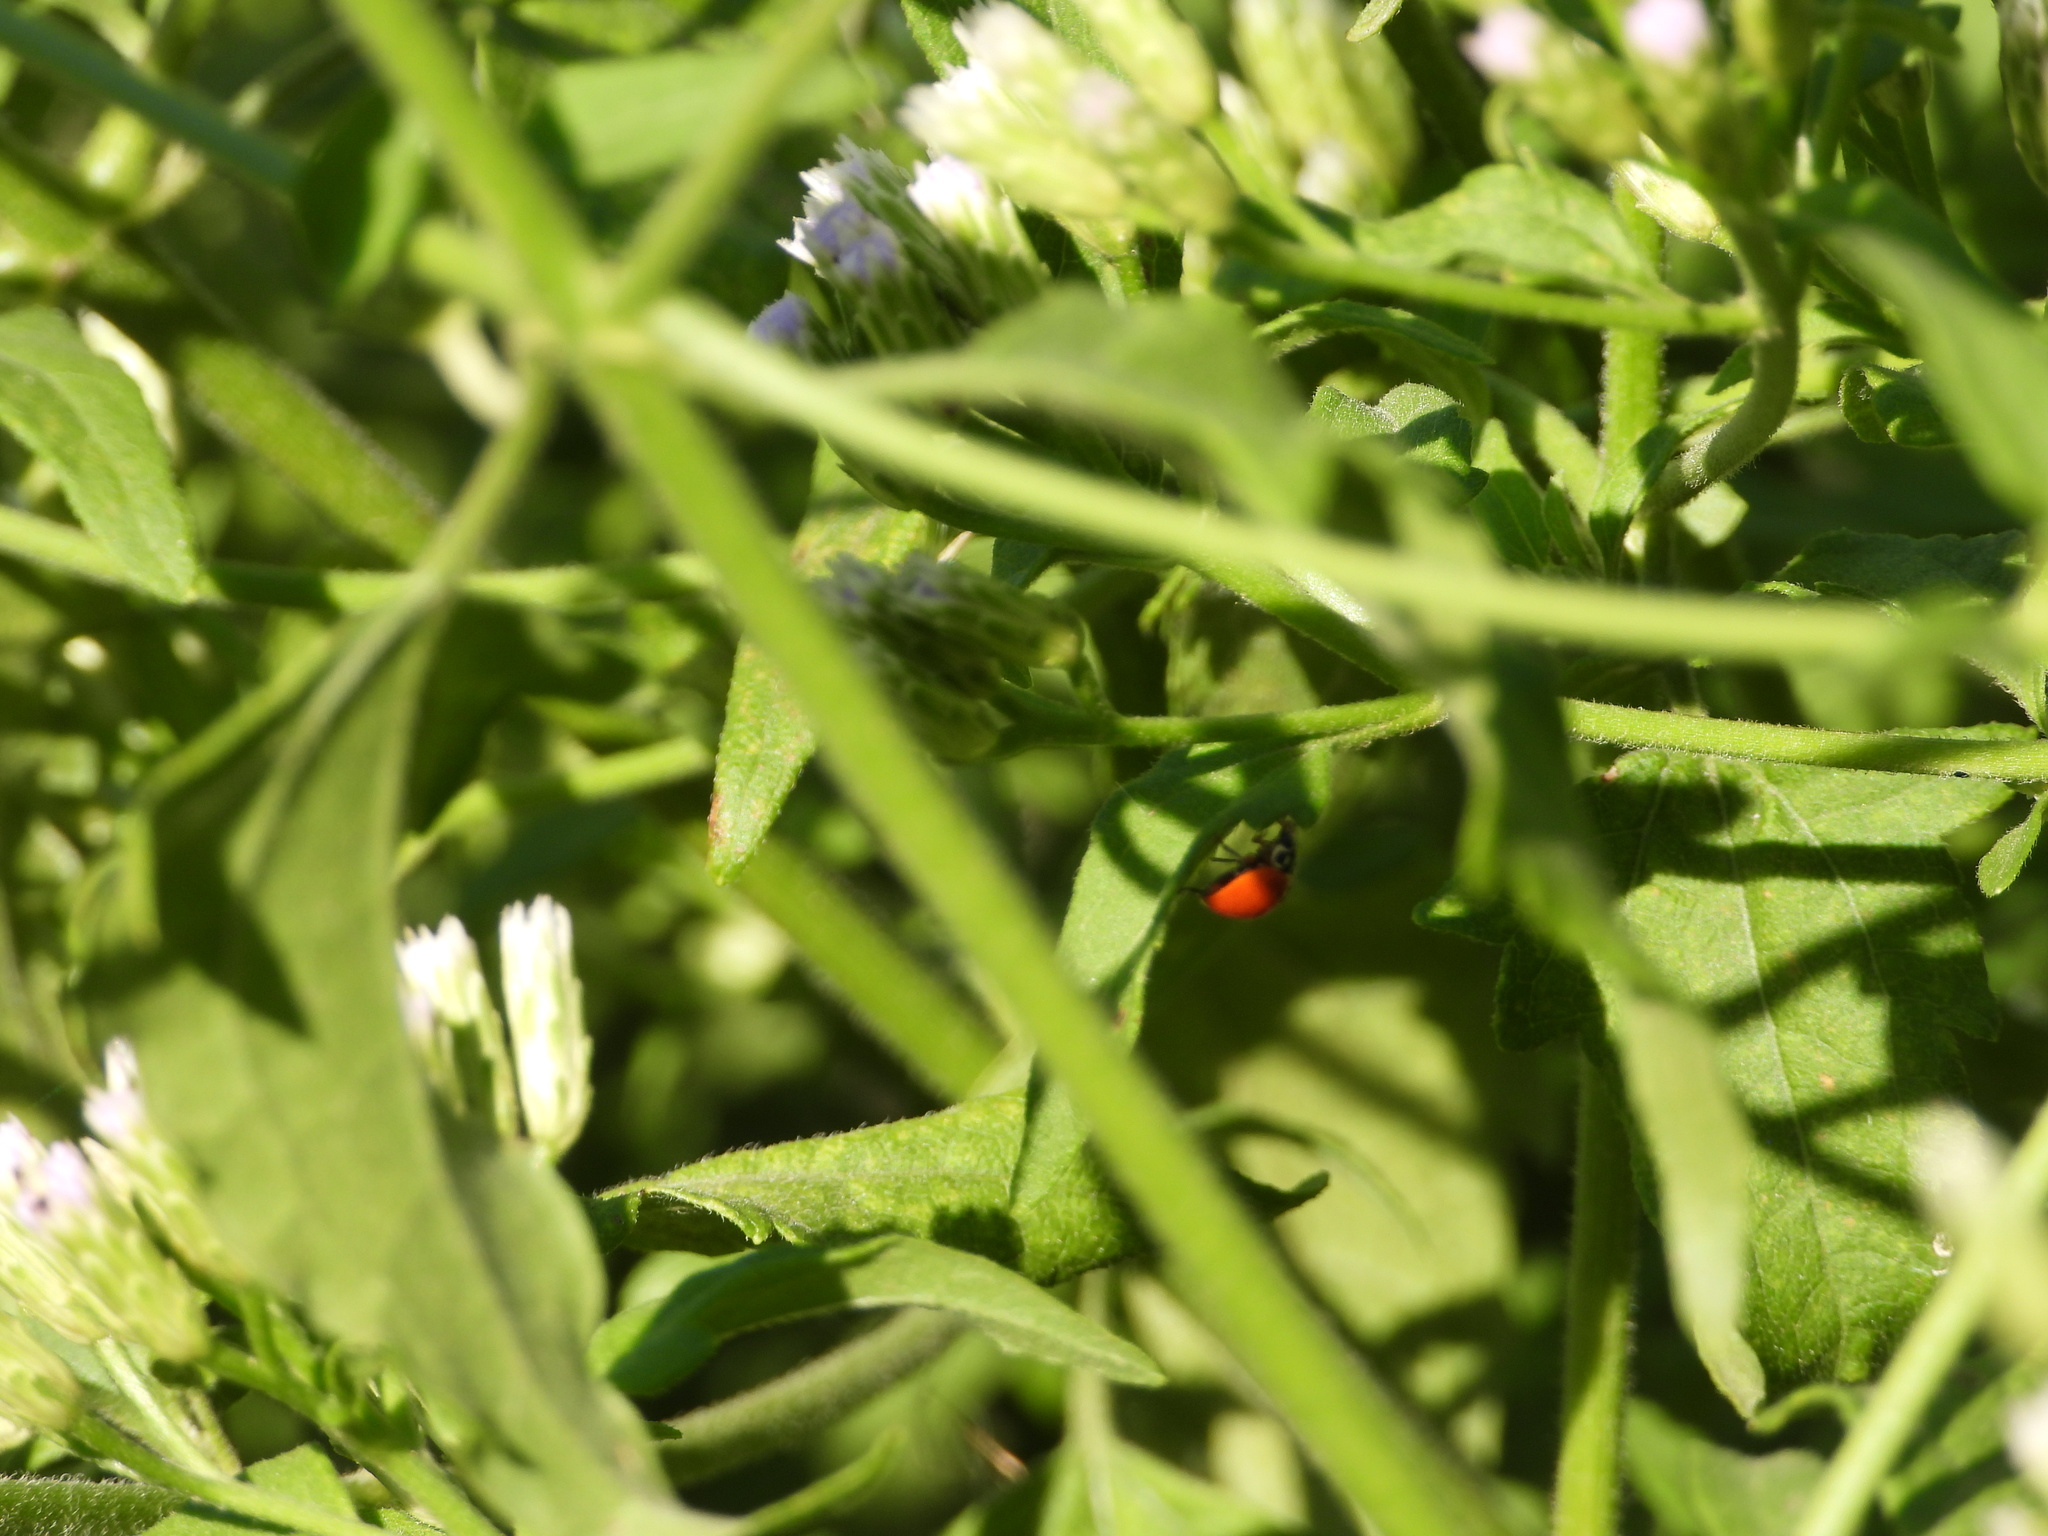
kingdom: Animalia
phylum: Arthropoda
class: Insecta
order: Coleoptera
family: Coccinellidae
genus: Cycloneda
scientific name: Cycloneda sanguinea
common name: Ladybird beetle
